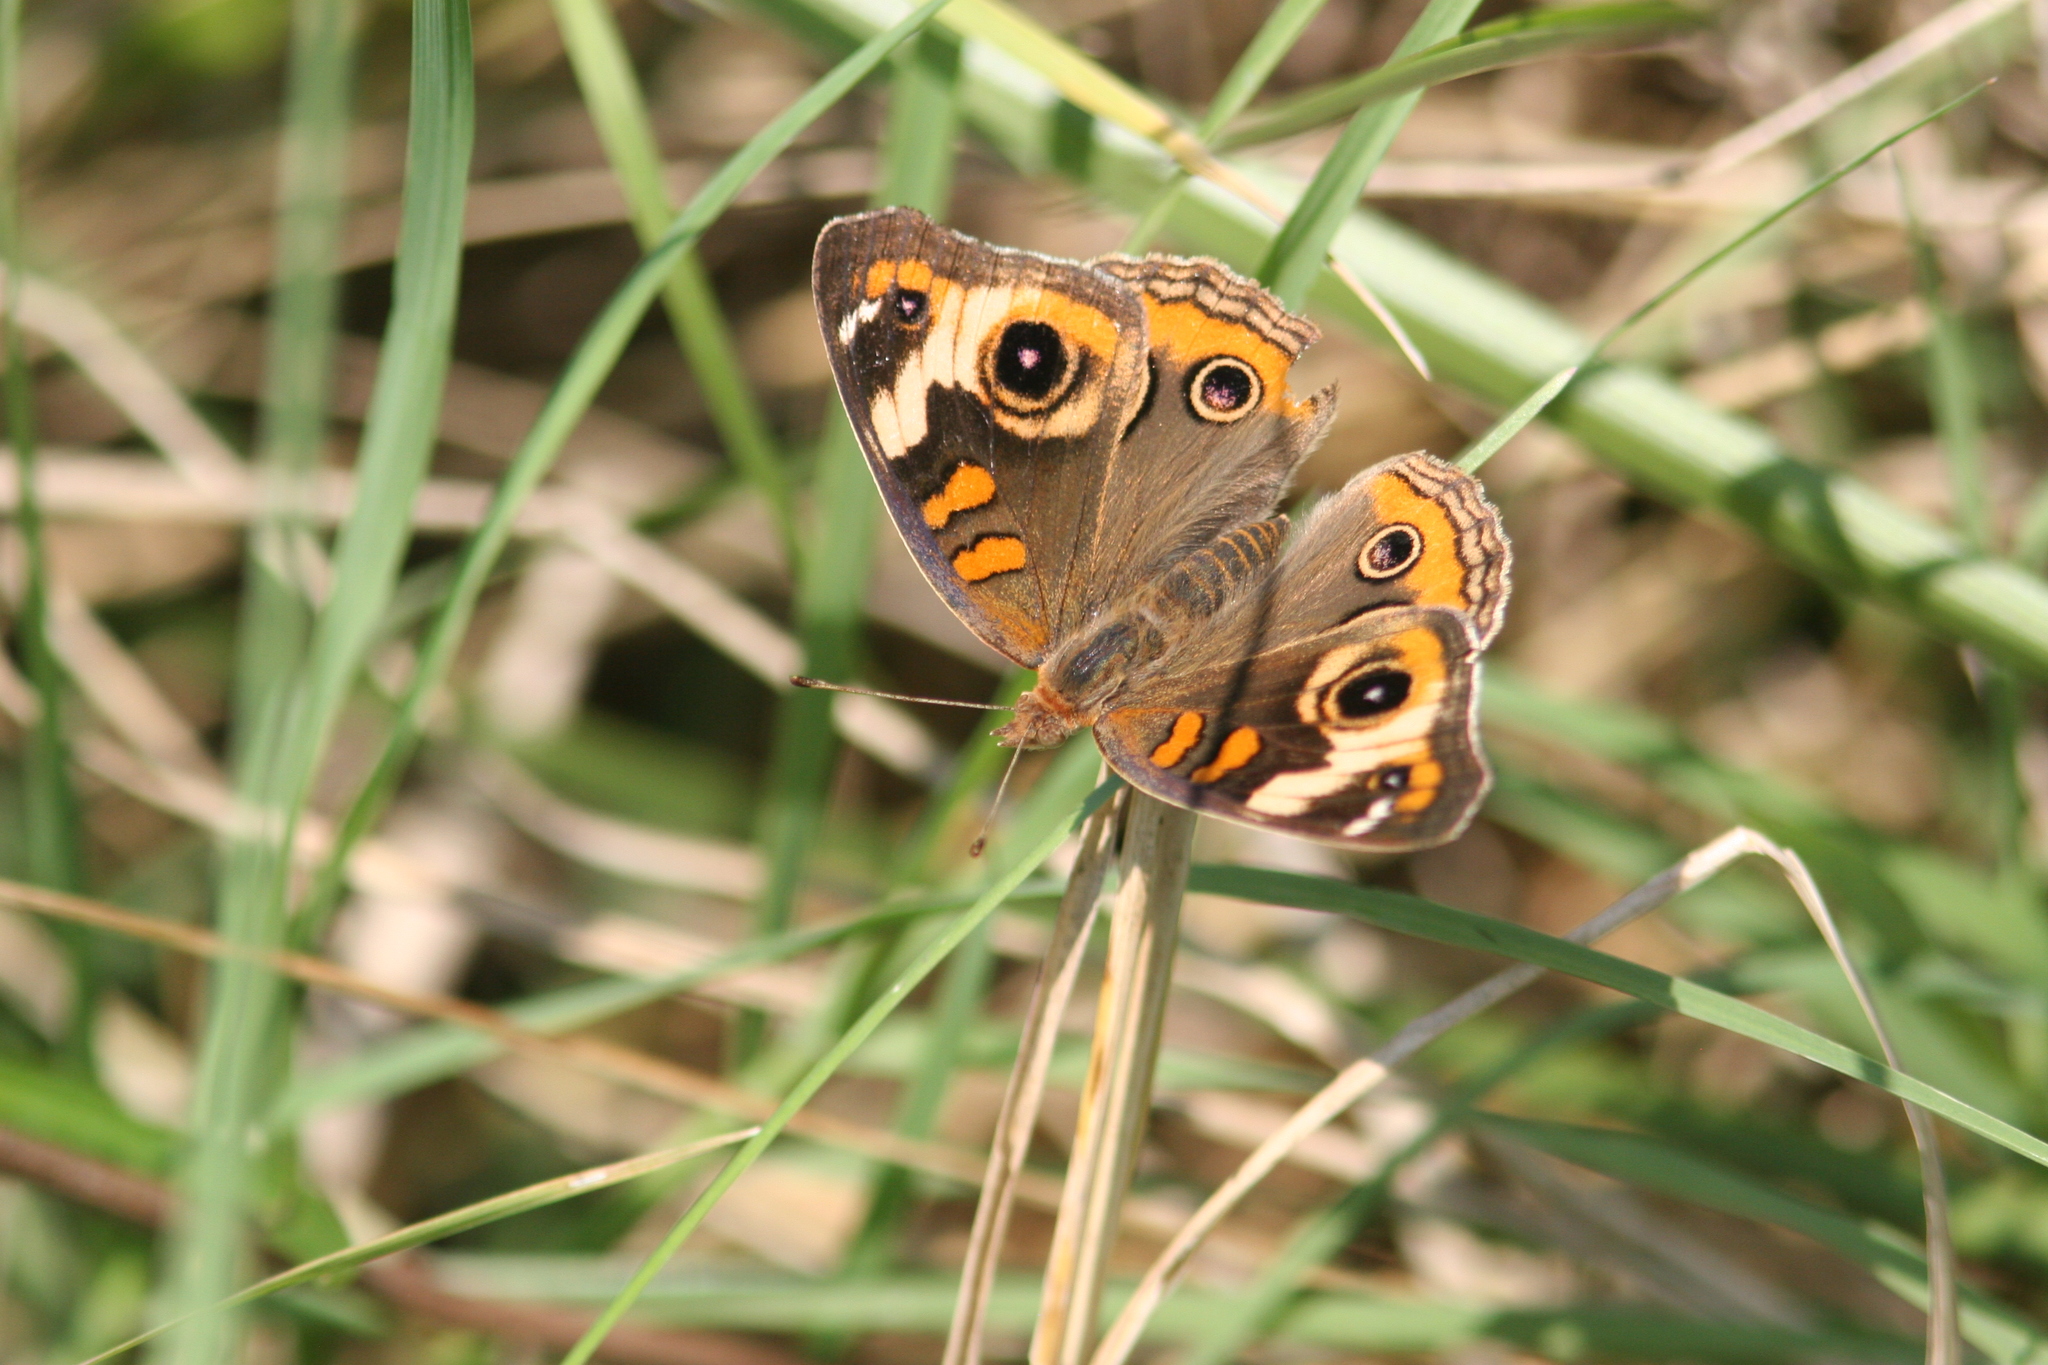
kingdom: Animalia
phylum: Arthropoda
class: Insecta
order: Lepidoptera
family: Nymphalidae
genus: Junonia
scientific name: Junonia coenia
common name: Common buckeye
